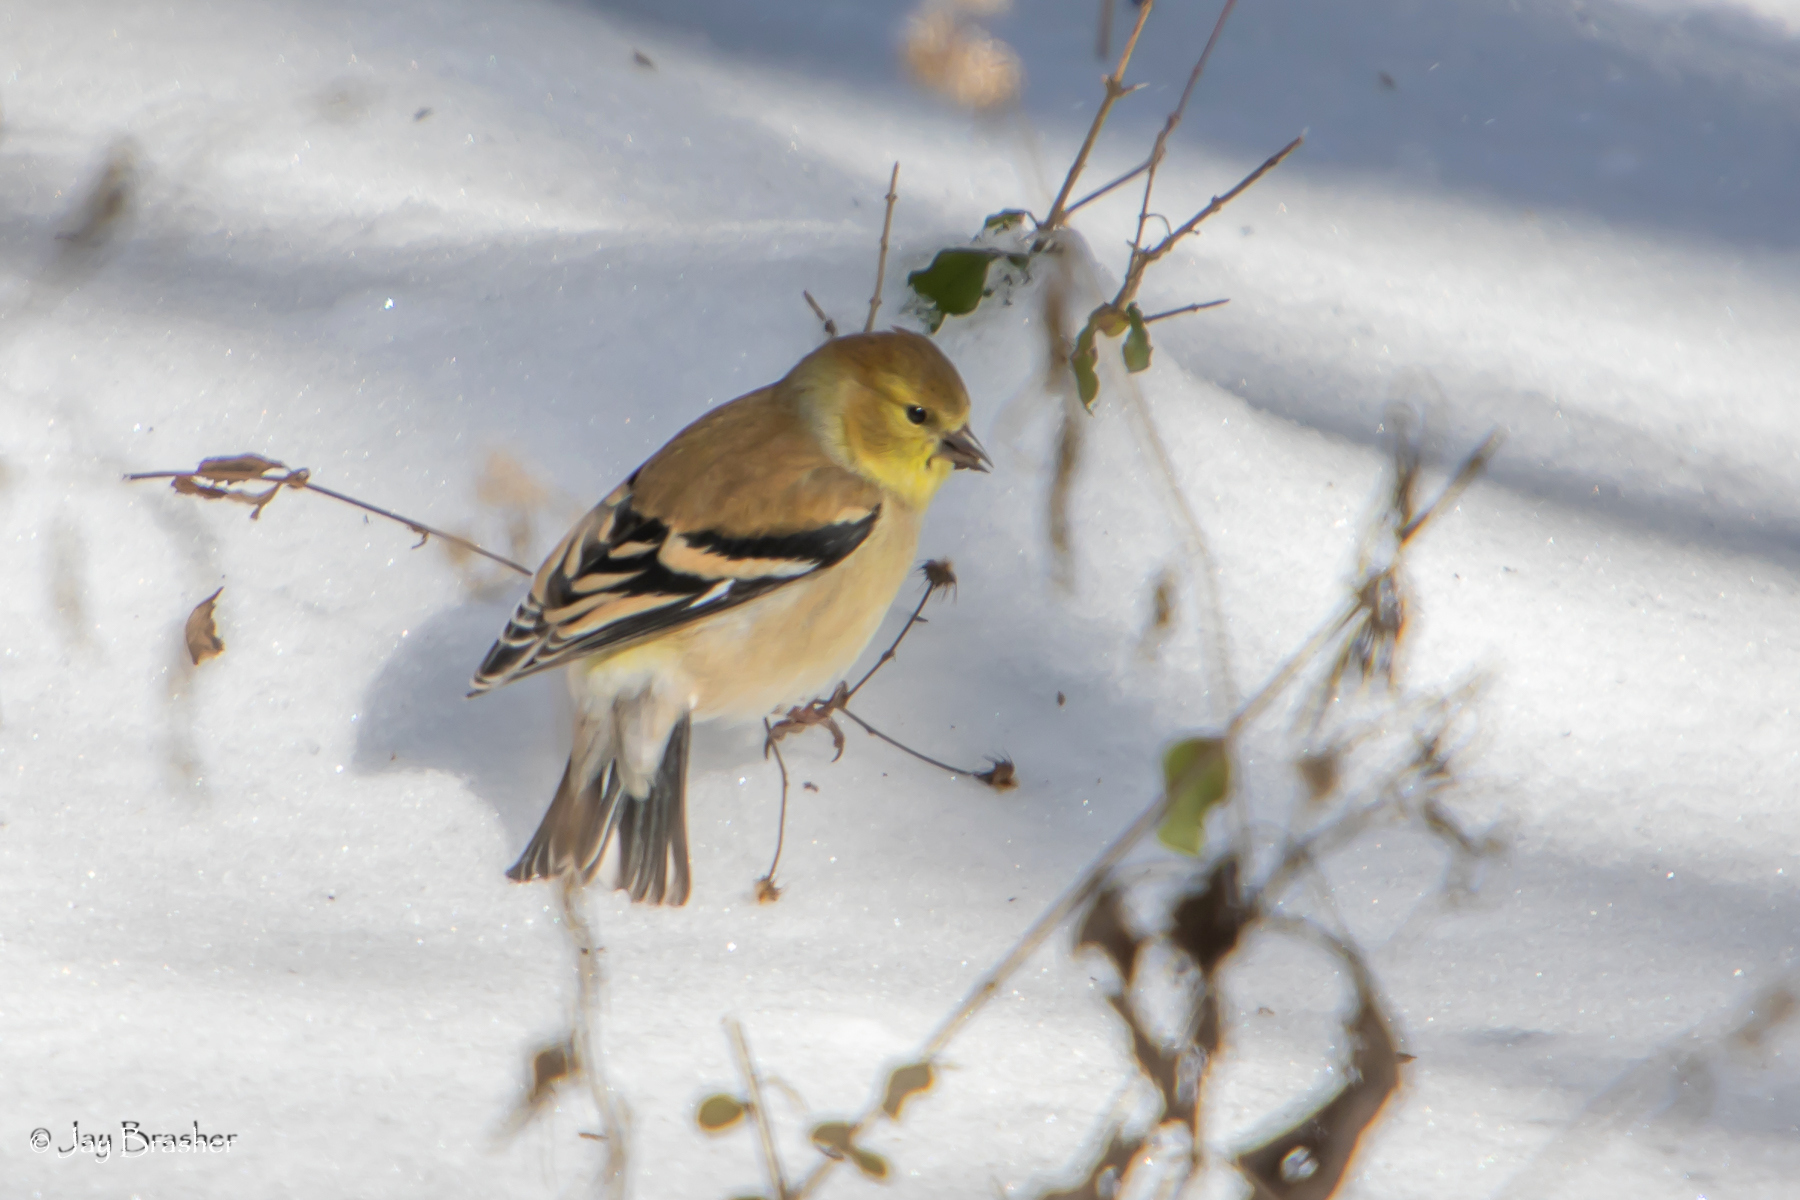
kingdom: Animalia
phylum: Chordata
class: Aves
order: Passeriformes
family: Fringillidae
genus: Spinus
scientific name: Spinus tristis
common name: American goldfinch
